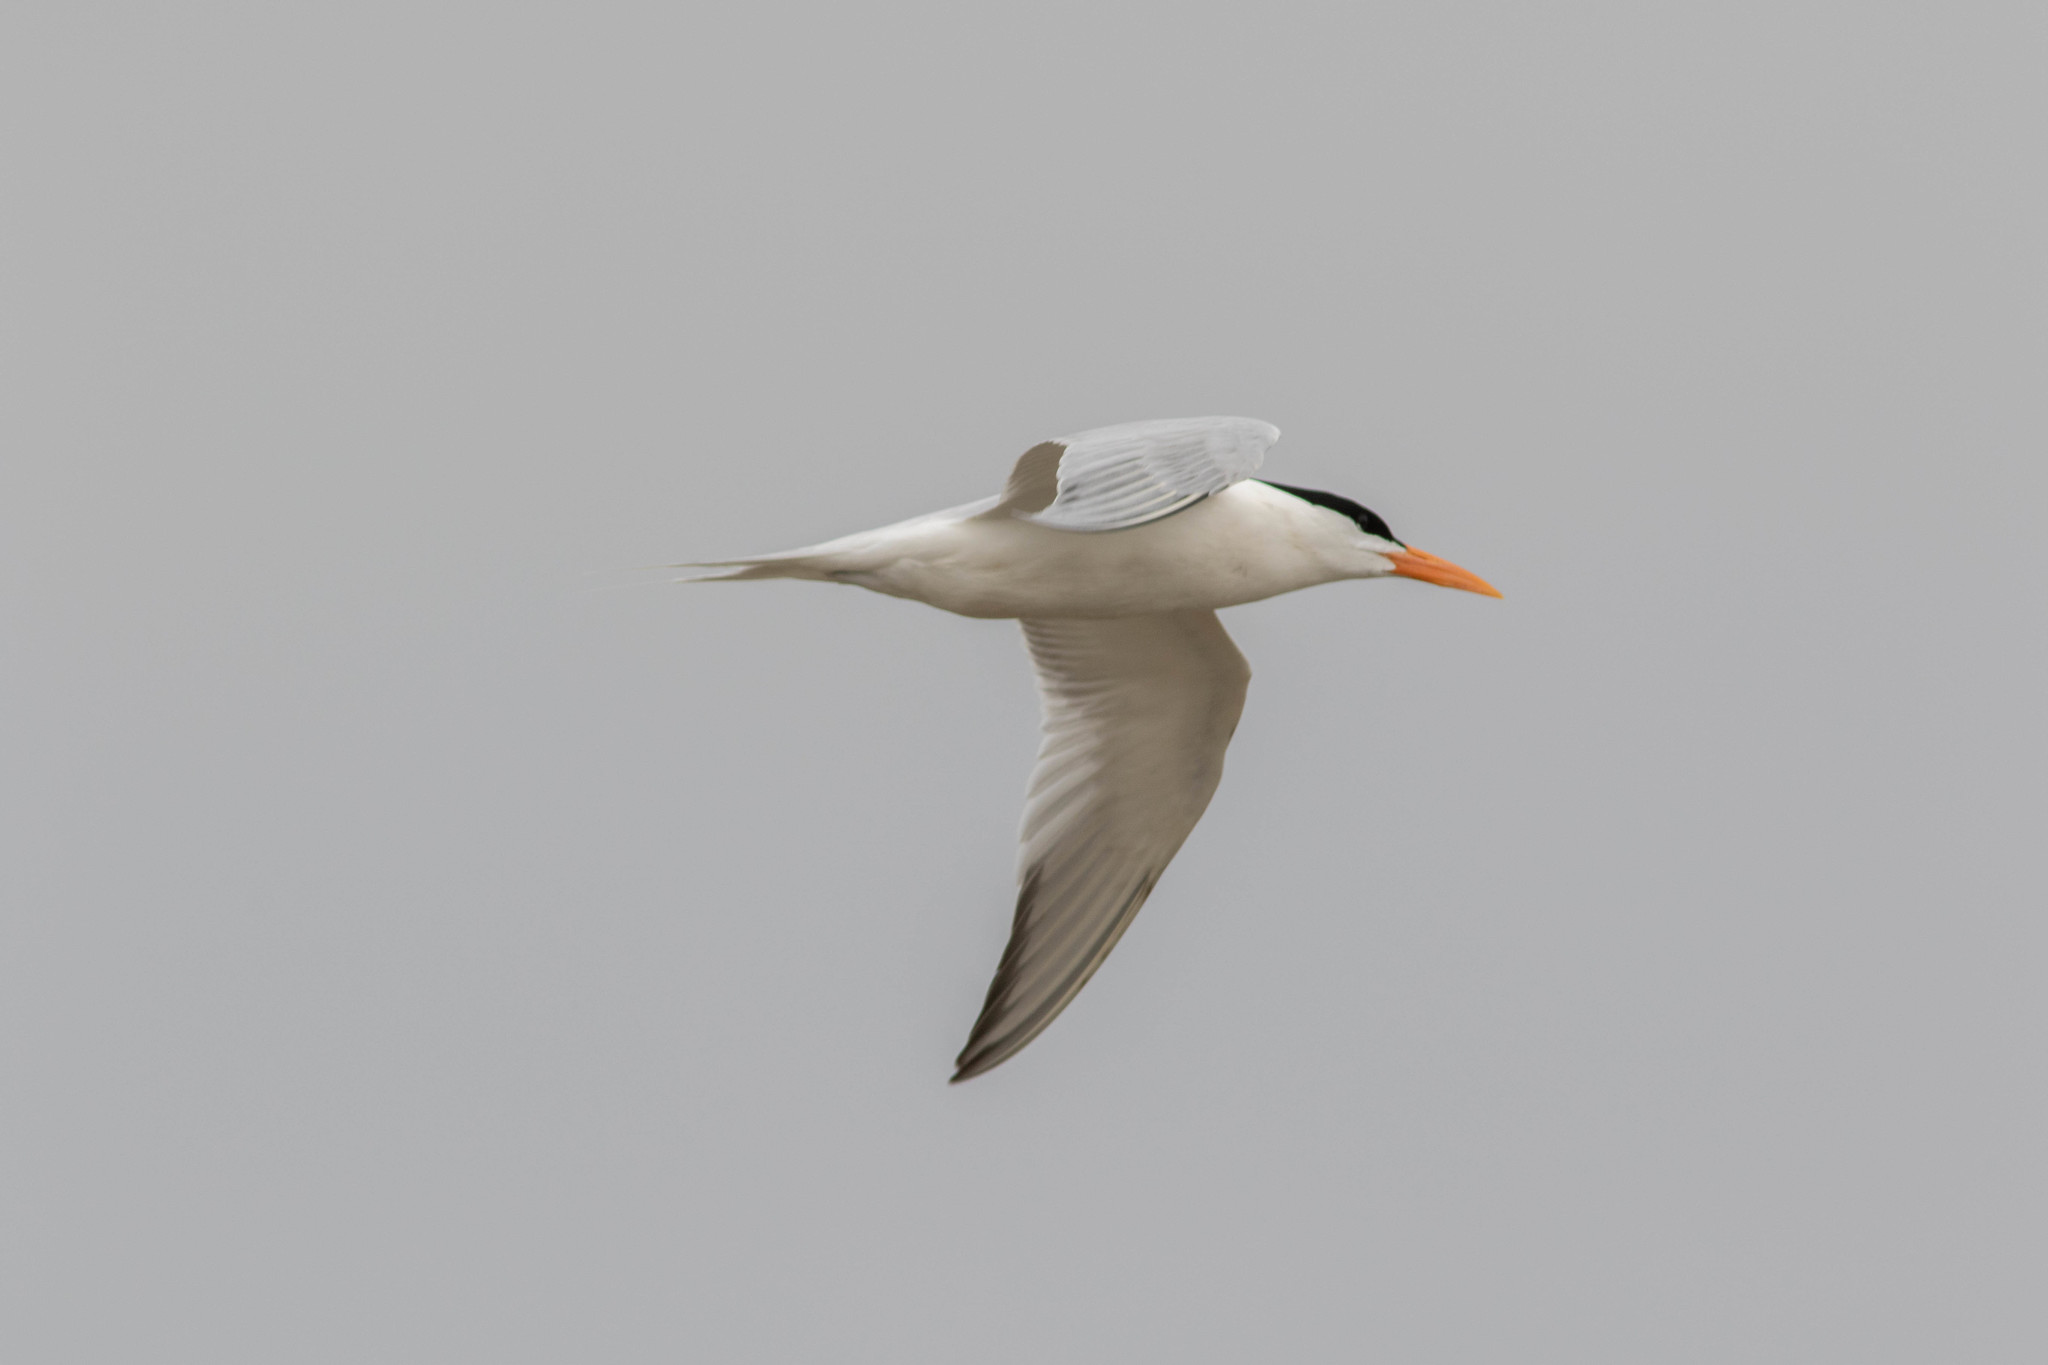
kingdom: Animalia
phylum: Chordata
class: Aves
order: Charadriiformes
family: Laridae
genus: Thalasseus
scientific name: Thalasseus maximus
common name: Royal tern
